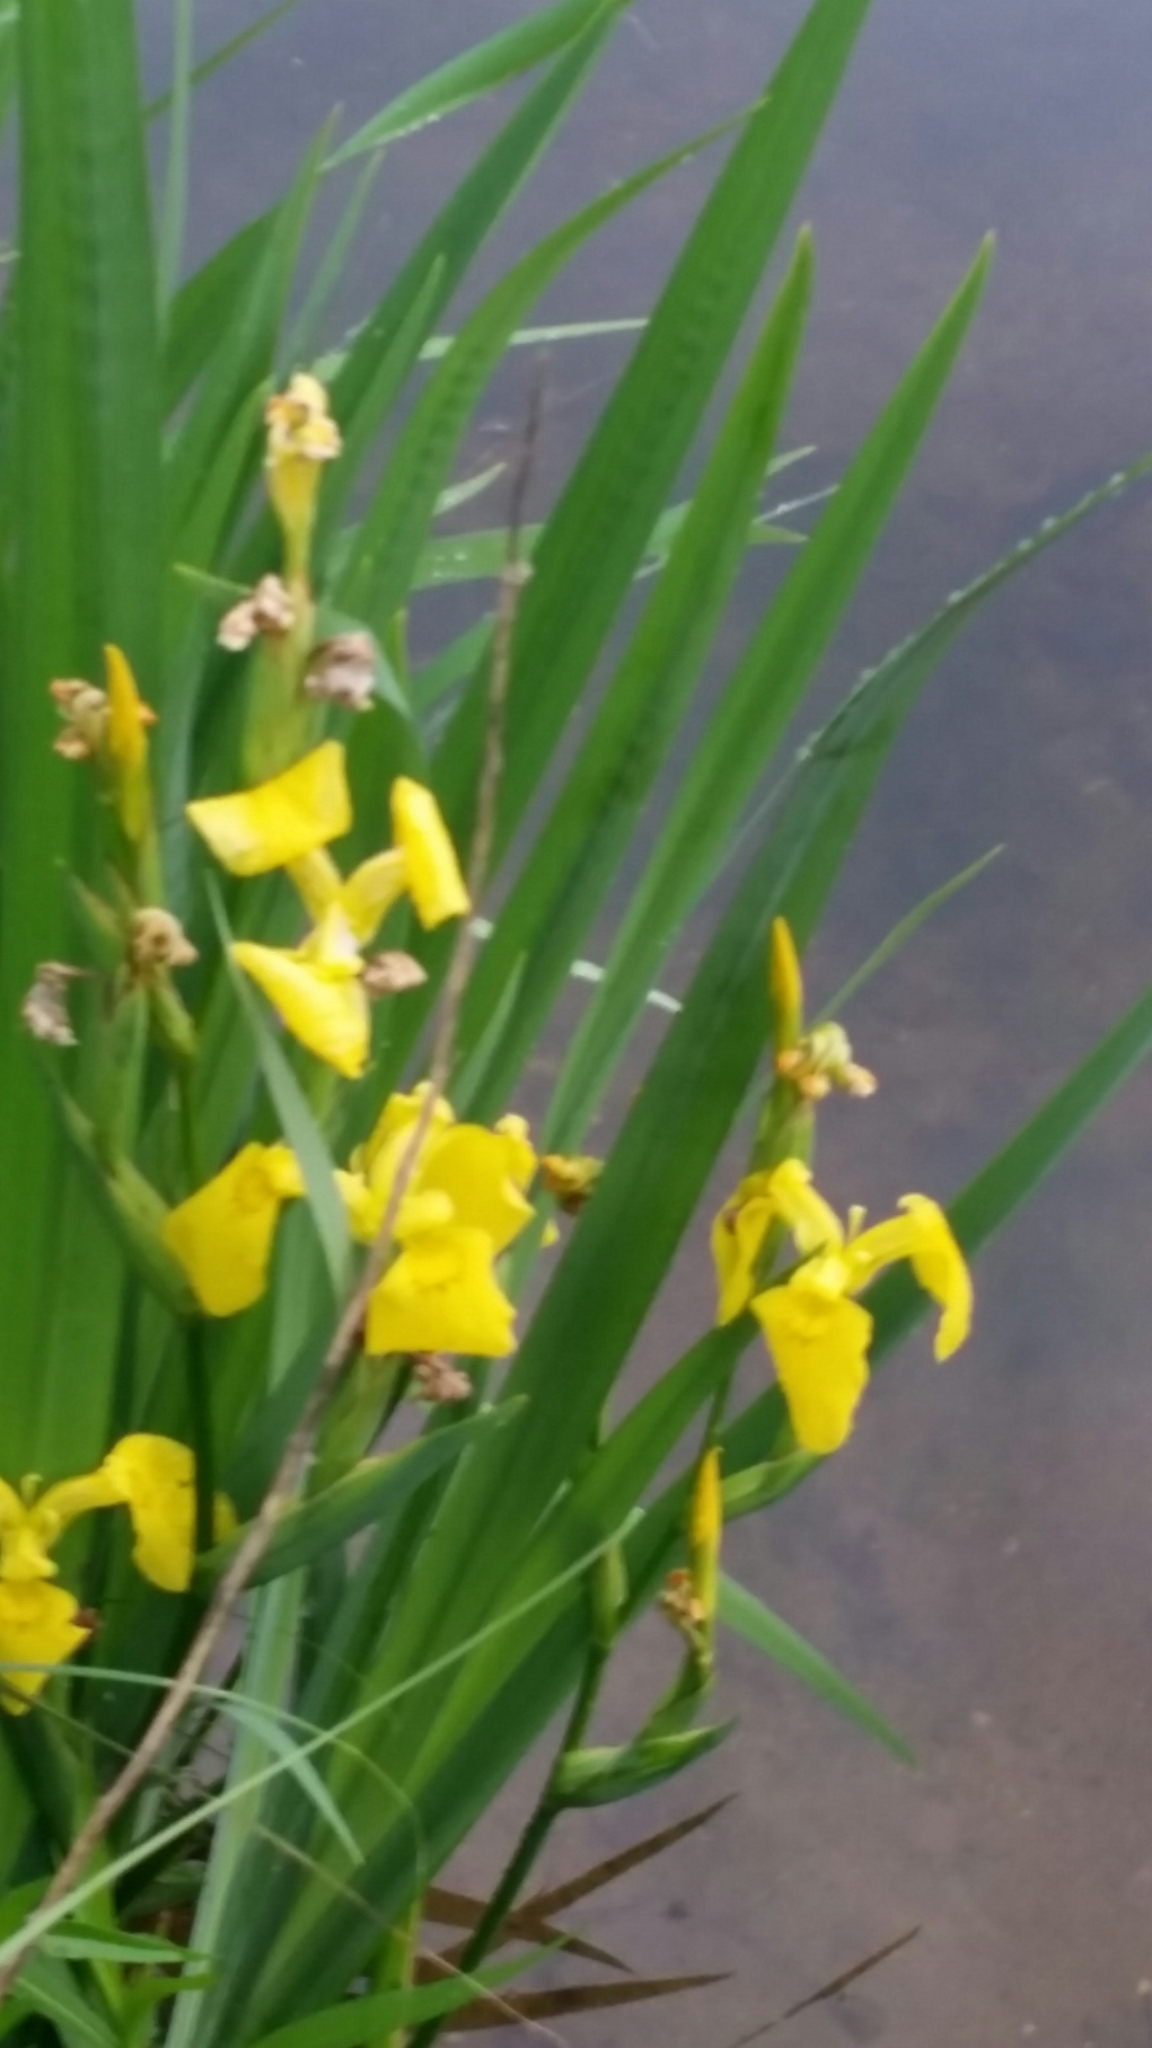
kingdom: Plantae
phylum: Tracheophyta
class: Liliopsida
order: Asparagales
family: Iridaceae
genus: Iris
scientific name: Iris pseudacorus
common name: Yellow flag
